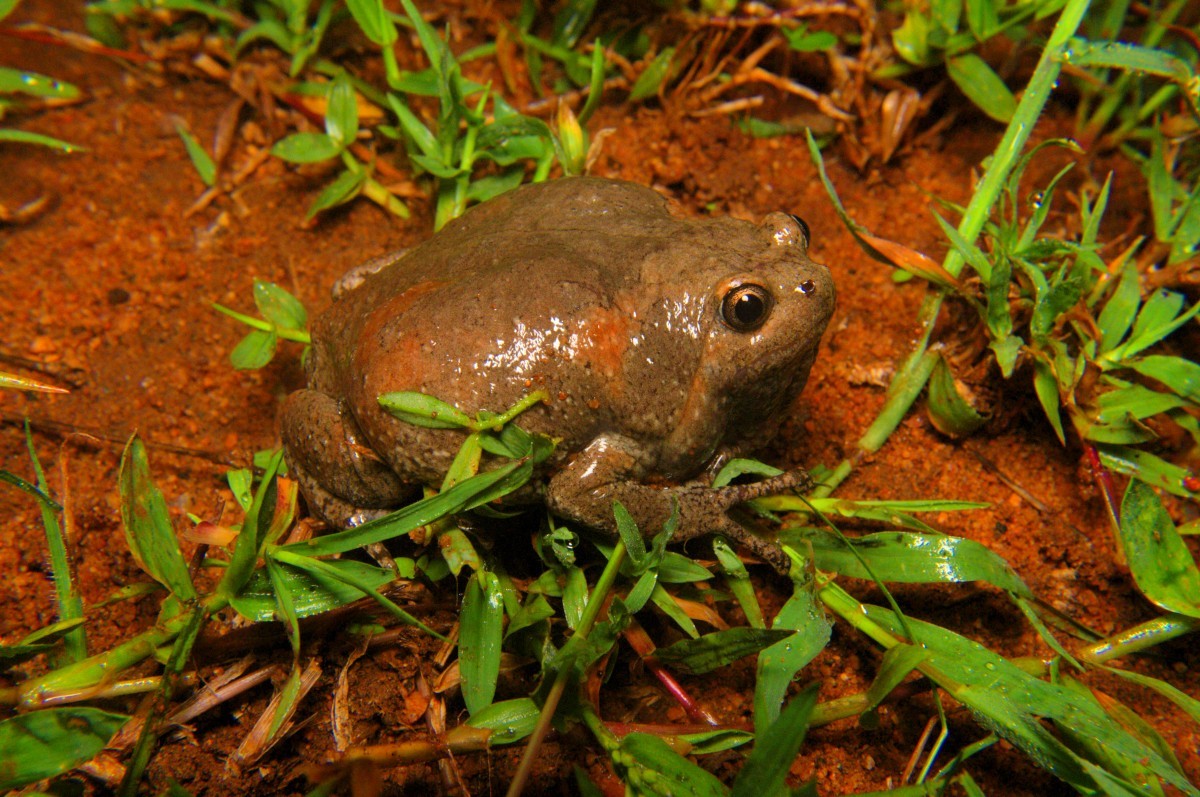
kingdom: Animalia
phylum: Chordata
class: Amphibia
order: Anura
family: Microhylidae
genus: Uperodon
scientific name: Uperodon taprobanicus
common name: Ceylon kaloula
